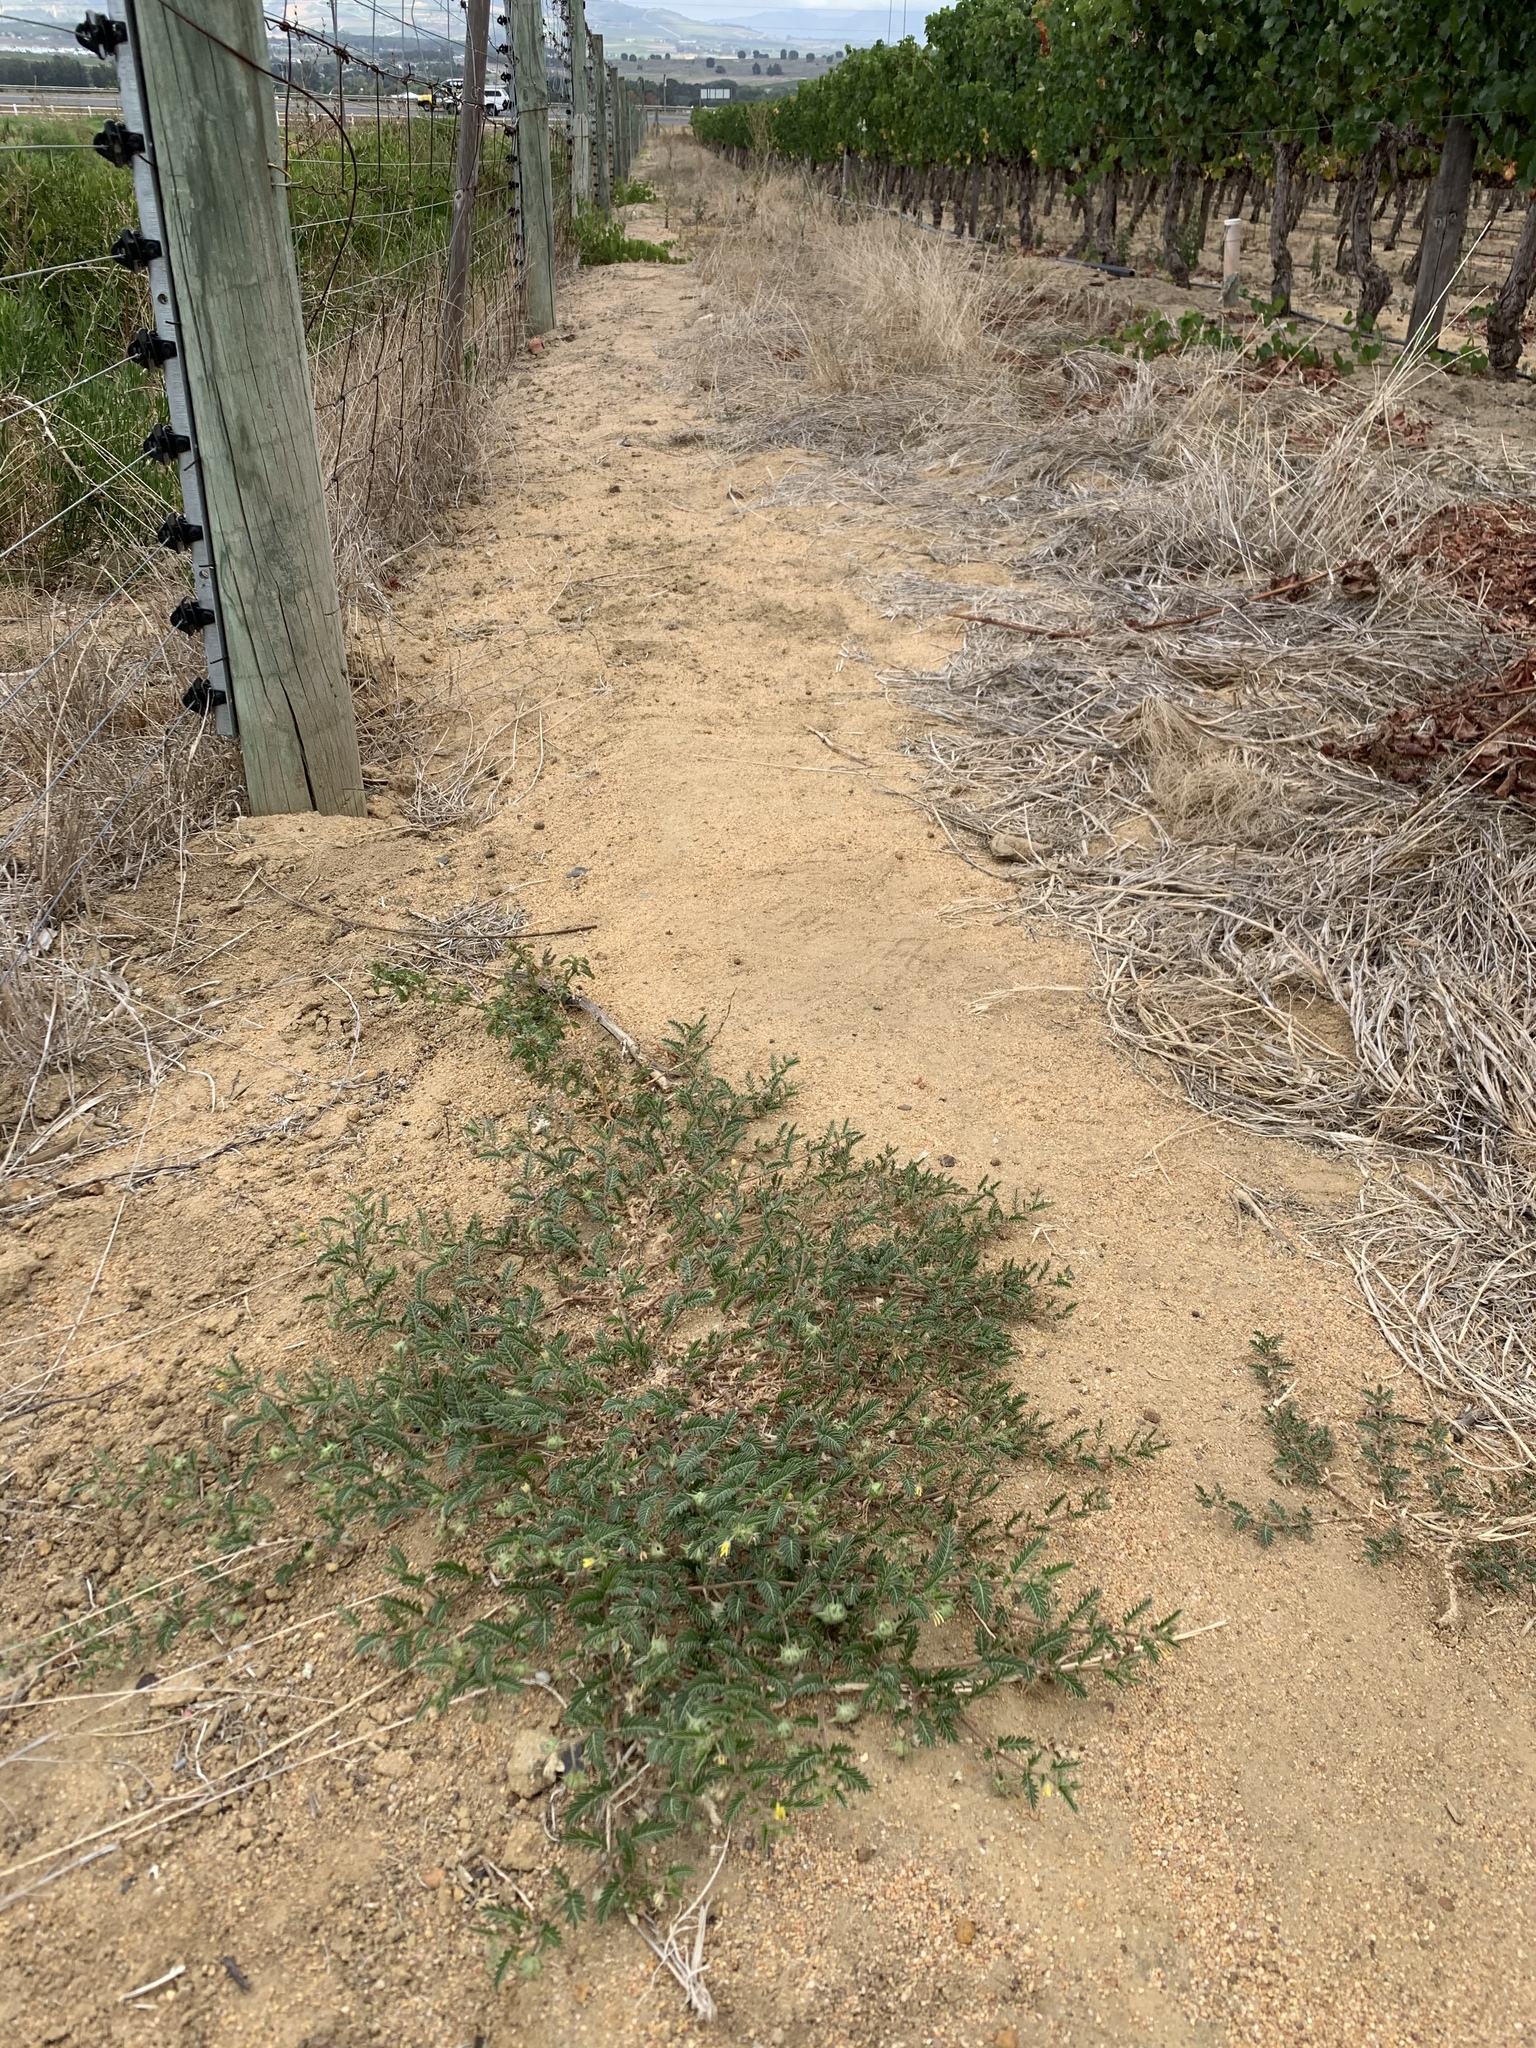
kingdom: Plantae
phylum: Tracheophyta
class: Magnoliopsida
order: Zygophyllales
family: Zygophyllaceae
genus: Tribulus
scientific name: Tribulus terrestris
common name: Puncturevine
